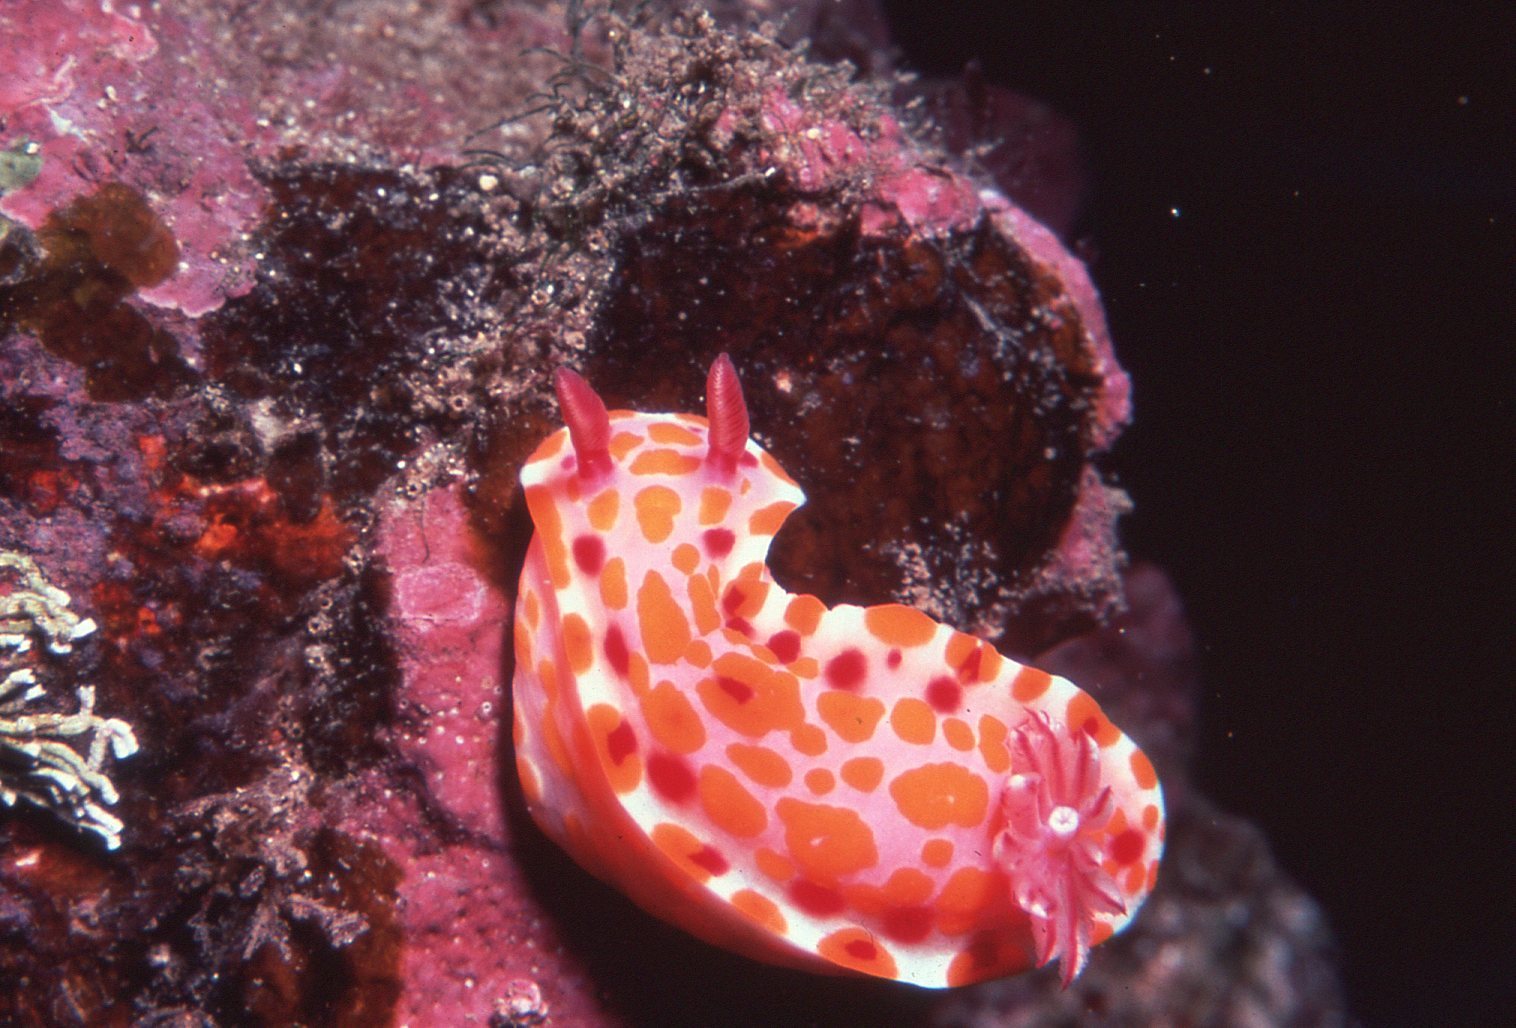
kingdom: Animalia
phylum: Mollusca
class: Gastropoda
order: Nudibranchia
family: Chromodorididae
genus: Ceratosoma
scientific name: Ceratosoma amoenum
